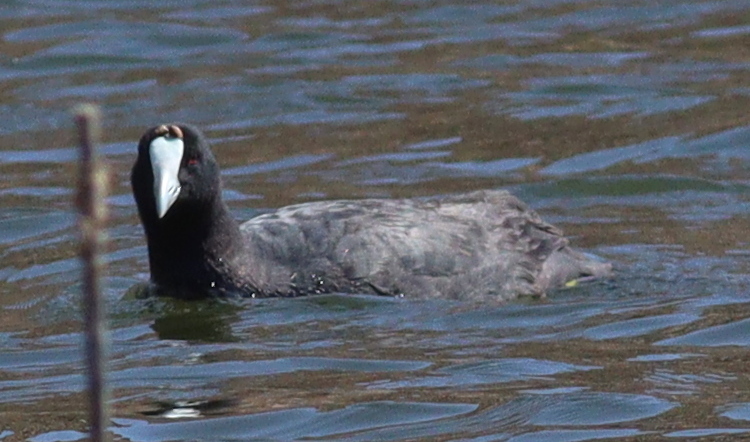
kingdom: Animalia
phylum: Chordata
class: Aves
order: Gruiformes
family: Rallidae
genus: Fulica
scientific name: Fulica cristata
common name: Red-knobbed coot
